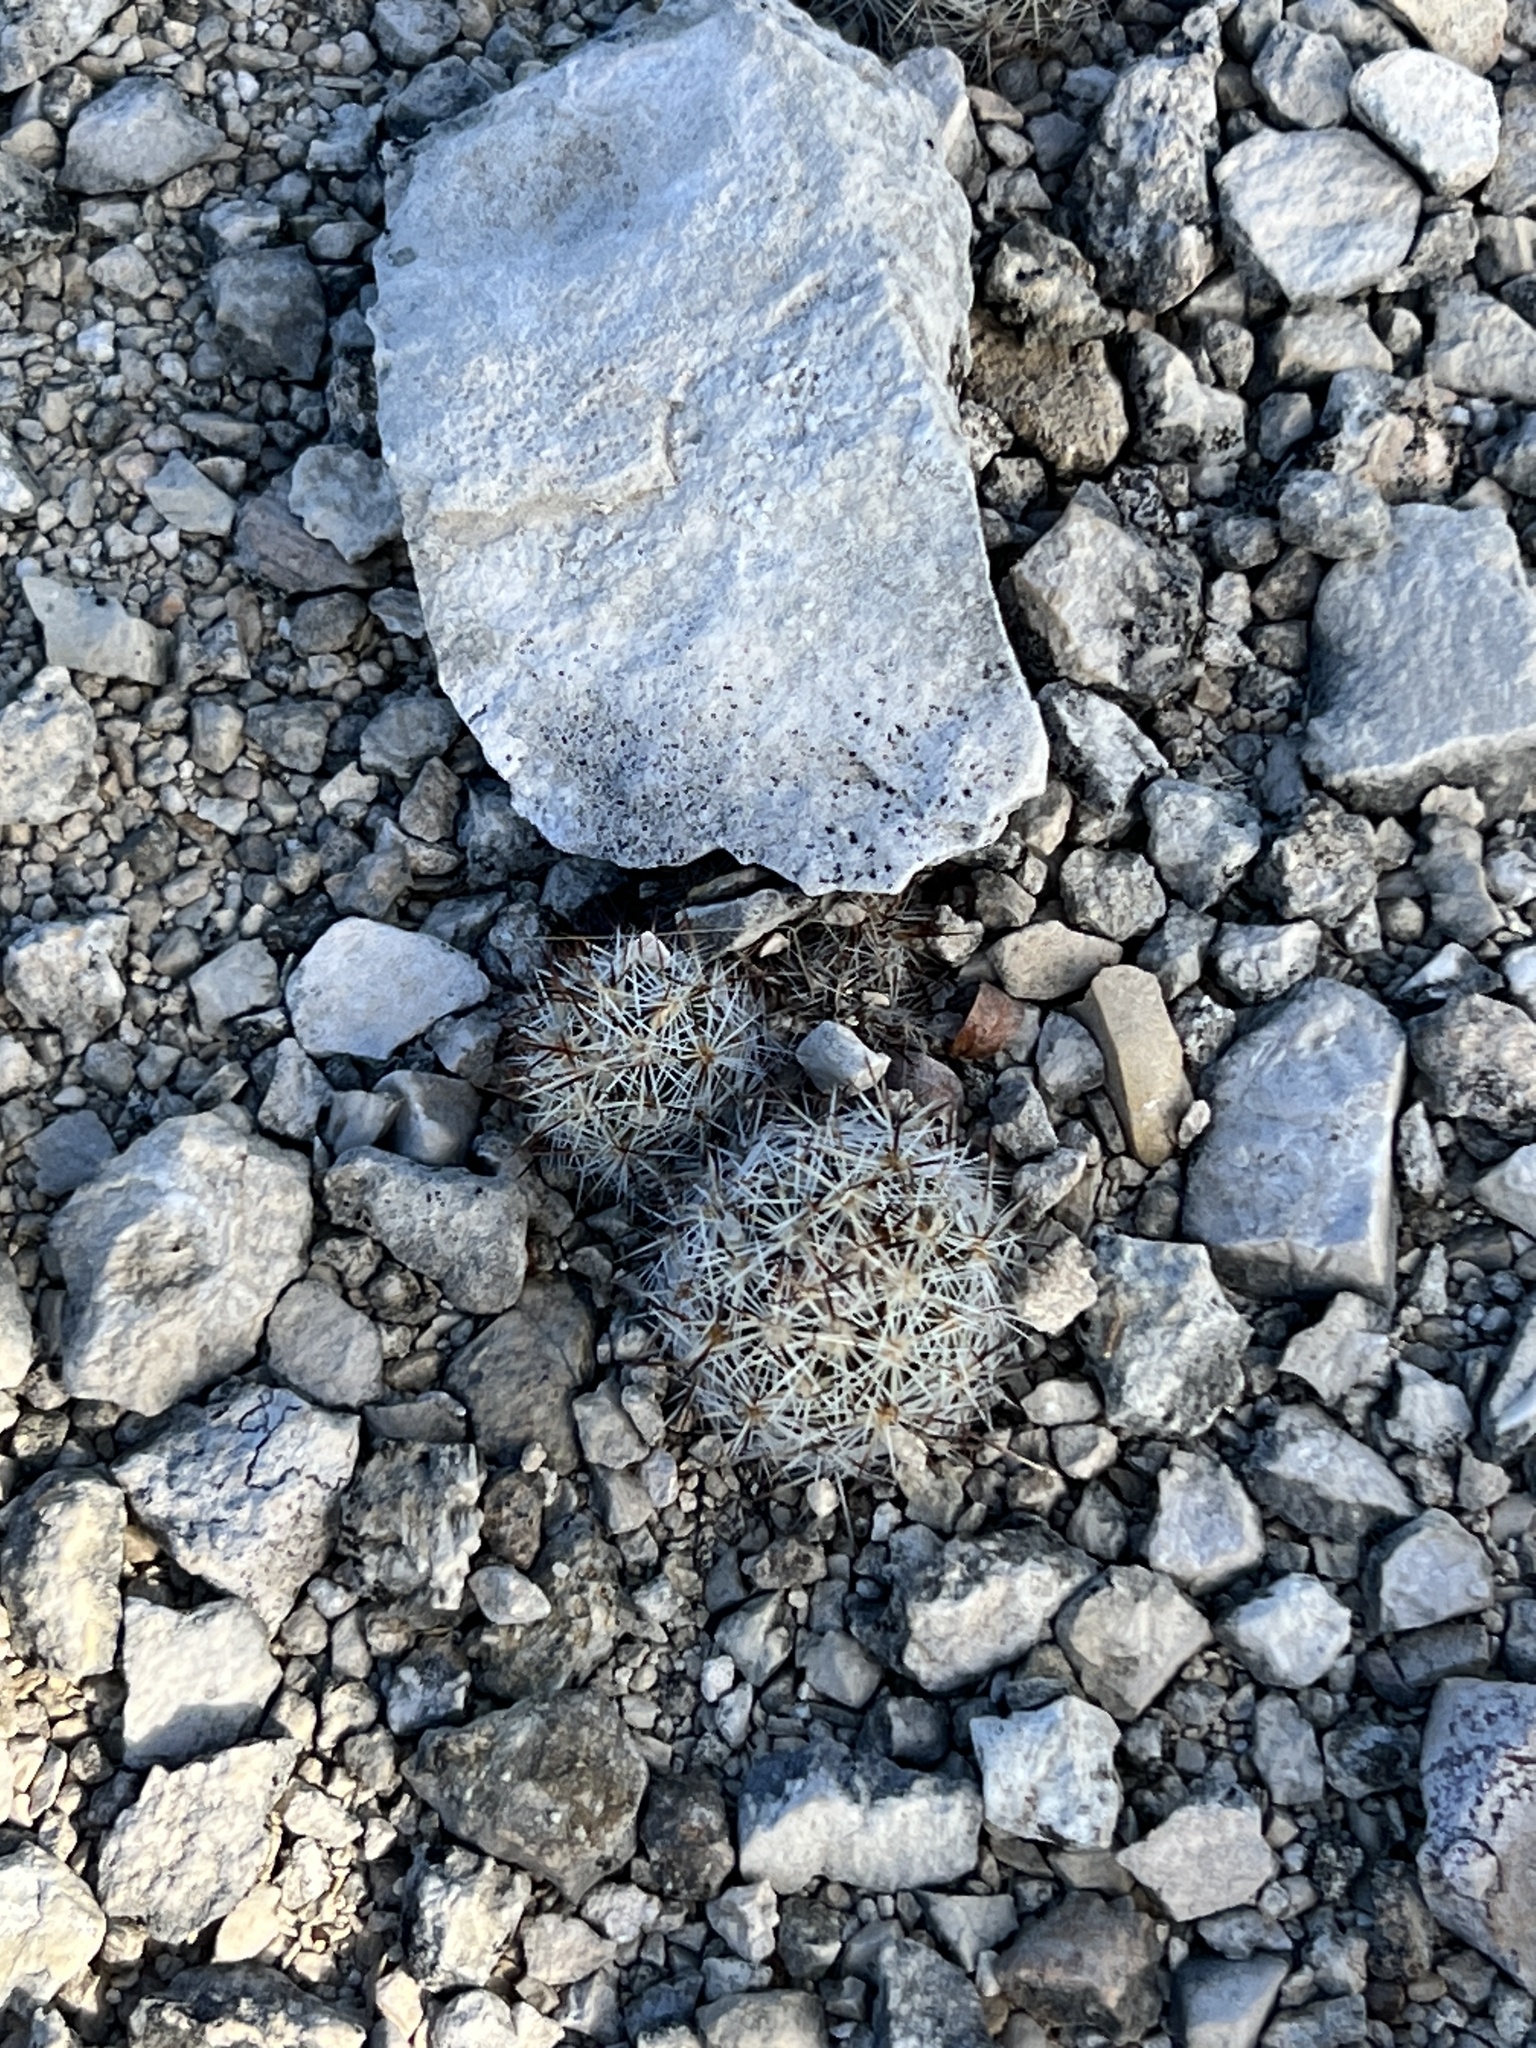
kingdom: Plantae
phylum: Tracheophyta
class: Magnoliopsida
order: Caryophyllales
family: Cactaceae
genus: Pelecyphora
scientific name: Pelecyphora emskoetteriana
